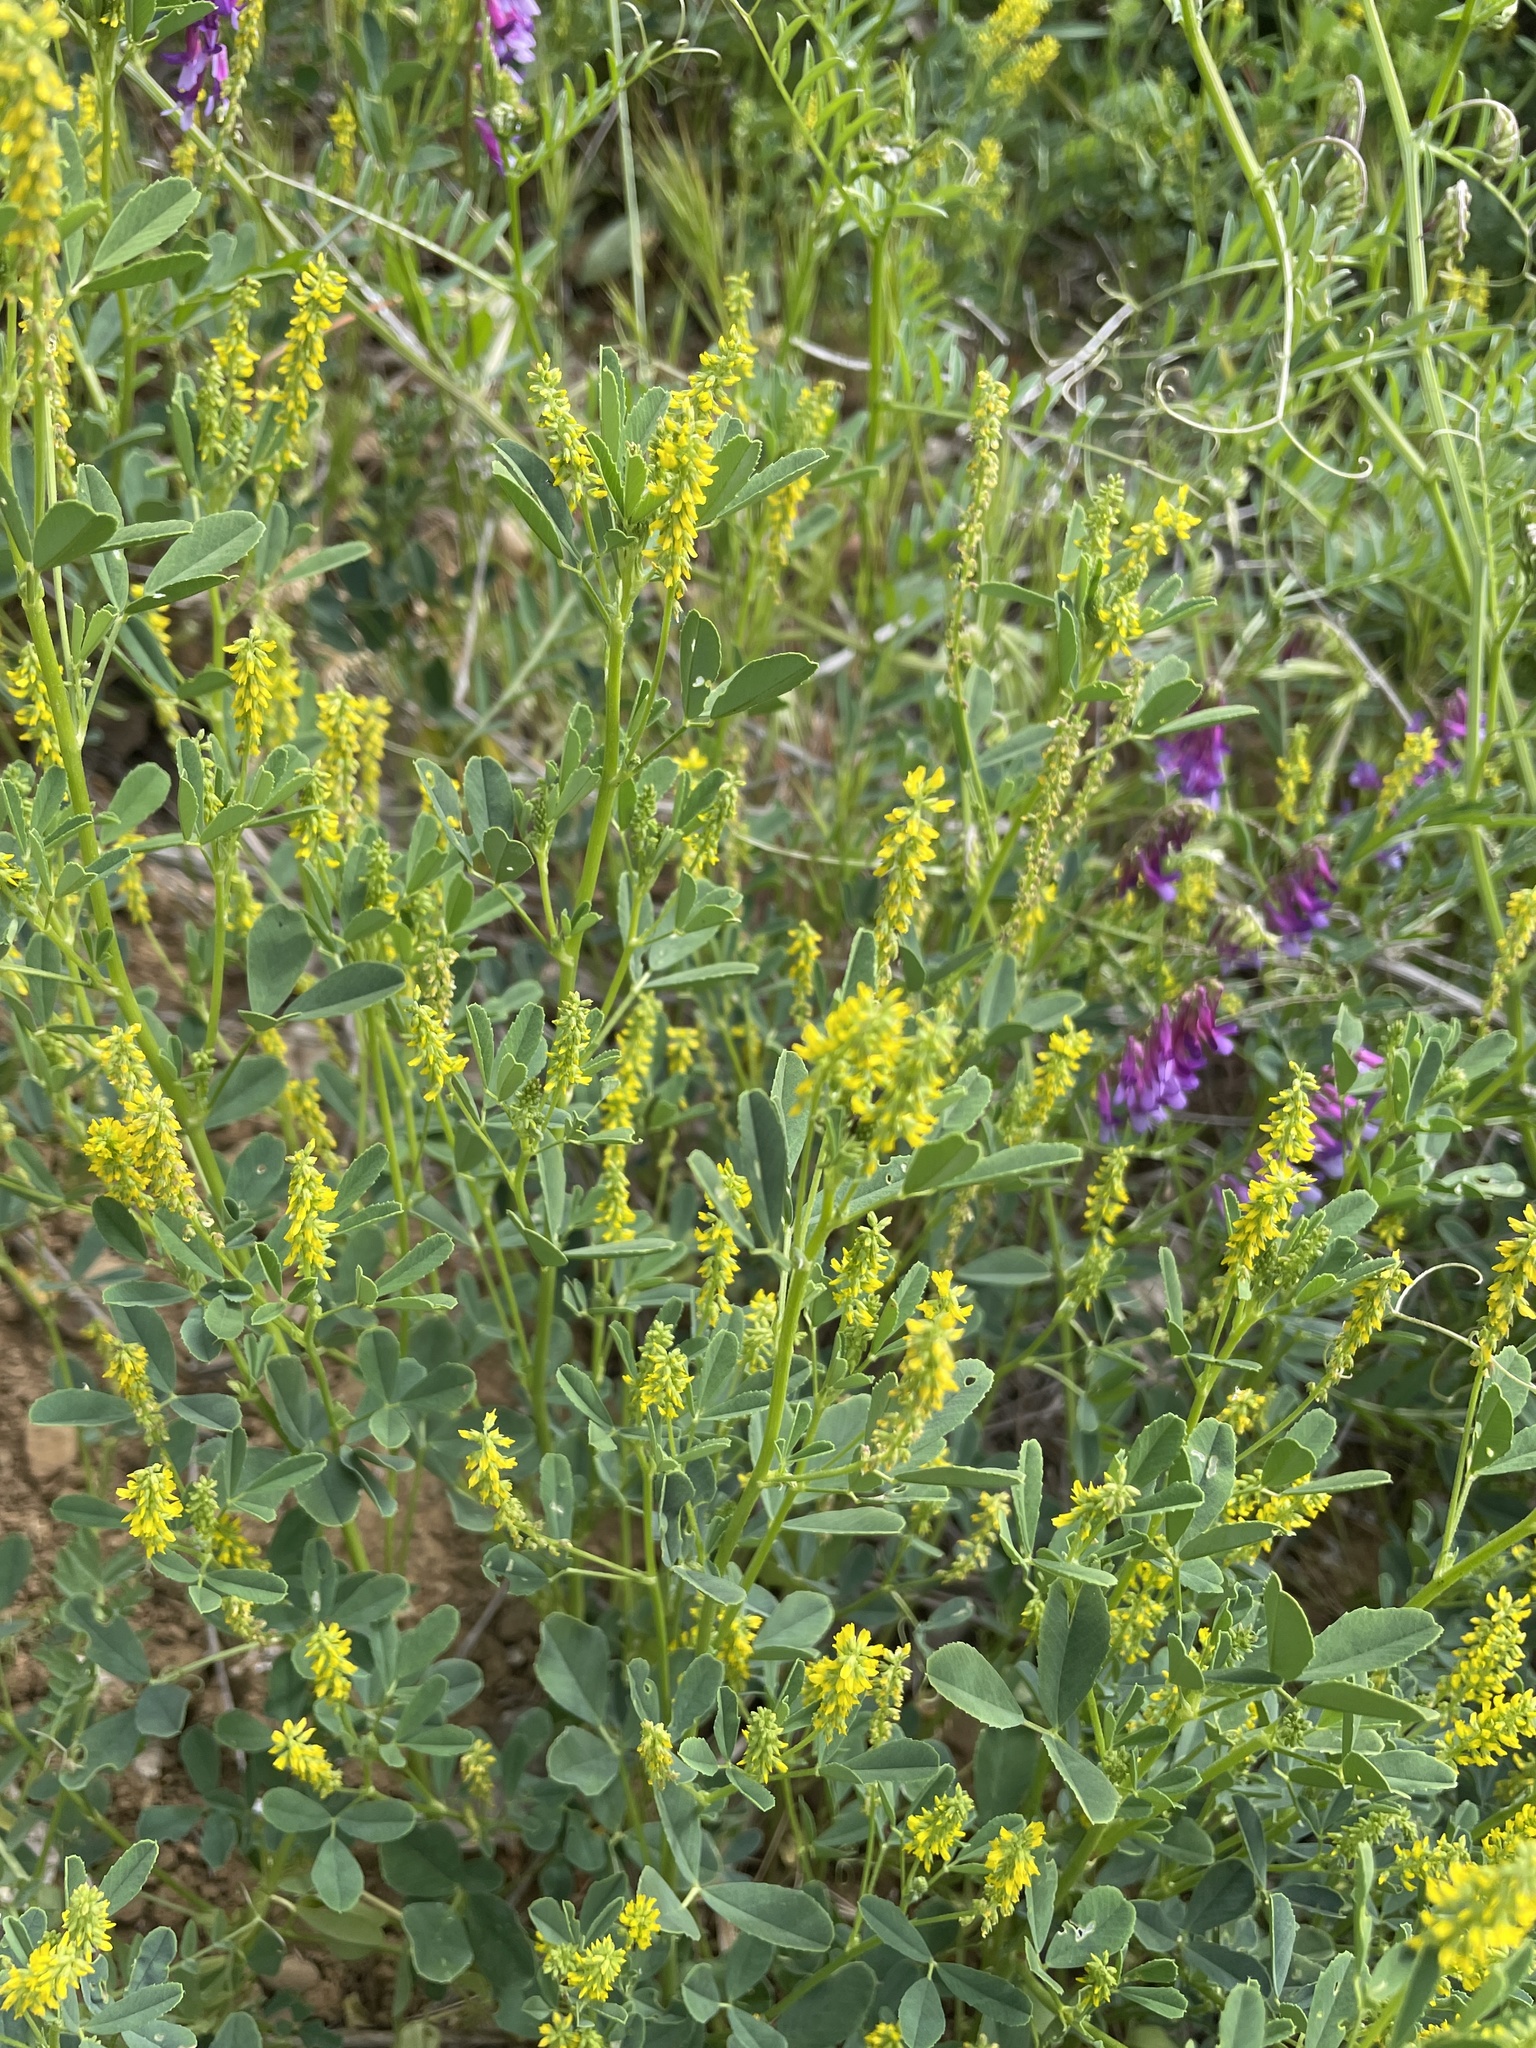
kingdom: Plantae
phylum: Tracheophyta
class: Magnoliopsida
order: Fabales
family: Fabaceae
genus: Melilotus
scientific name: Melilotus indicus
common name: Small melilot
